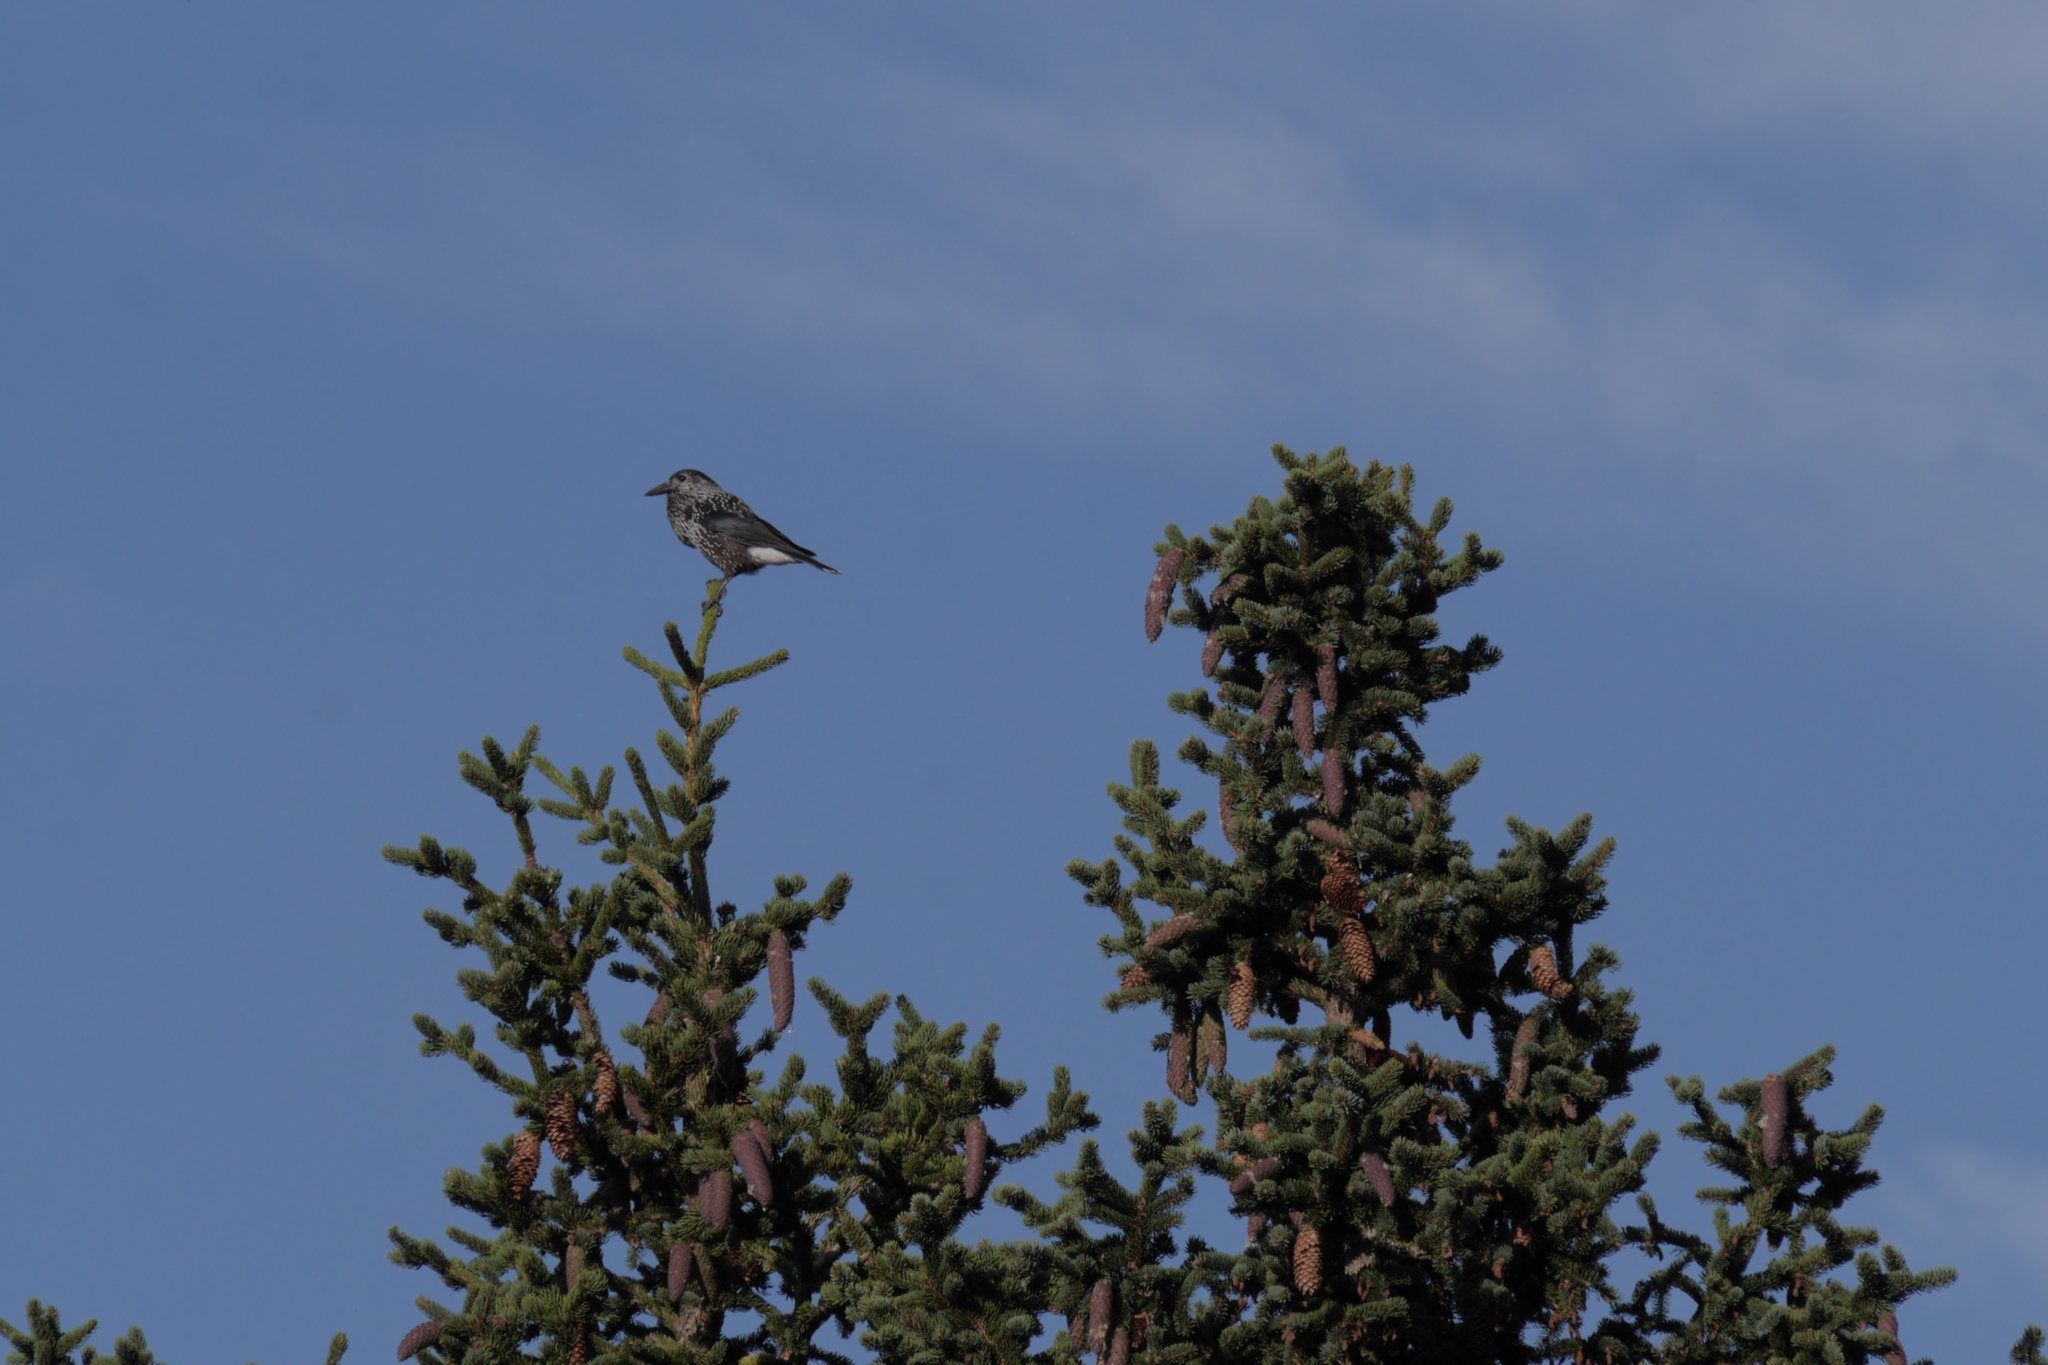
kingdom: Animalia
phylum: Chordata
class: Aves
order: Passeriformes
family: Corvidae
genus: Nucifraga
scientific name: Nucifraga caryocatactes
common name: Spotted nutcracker
